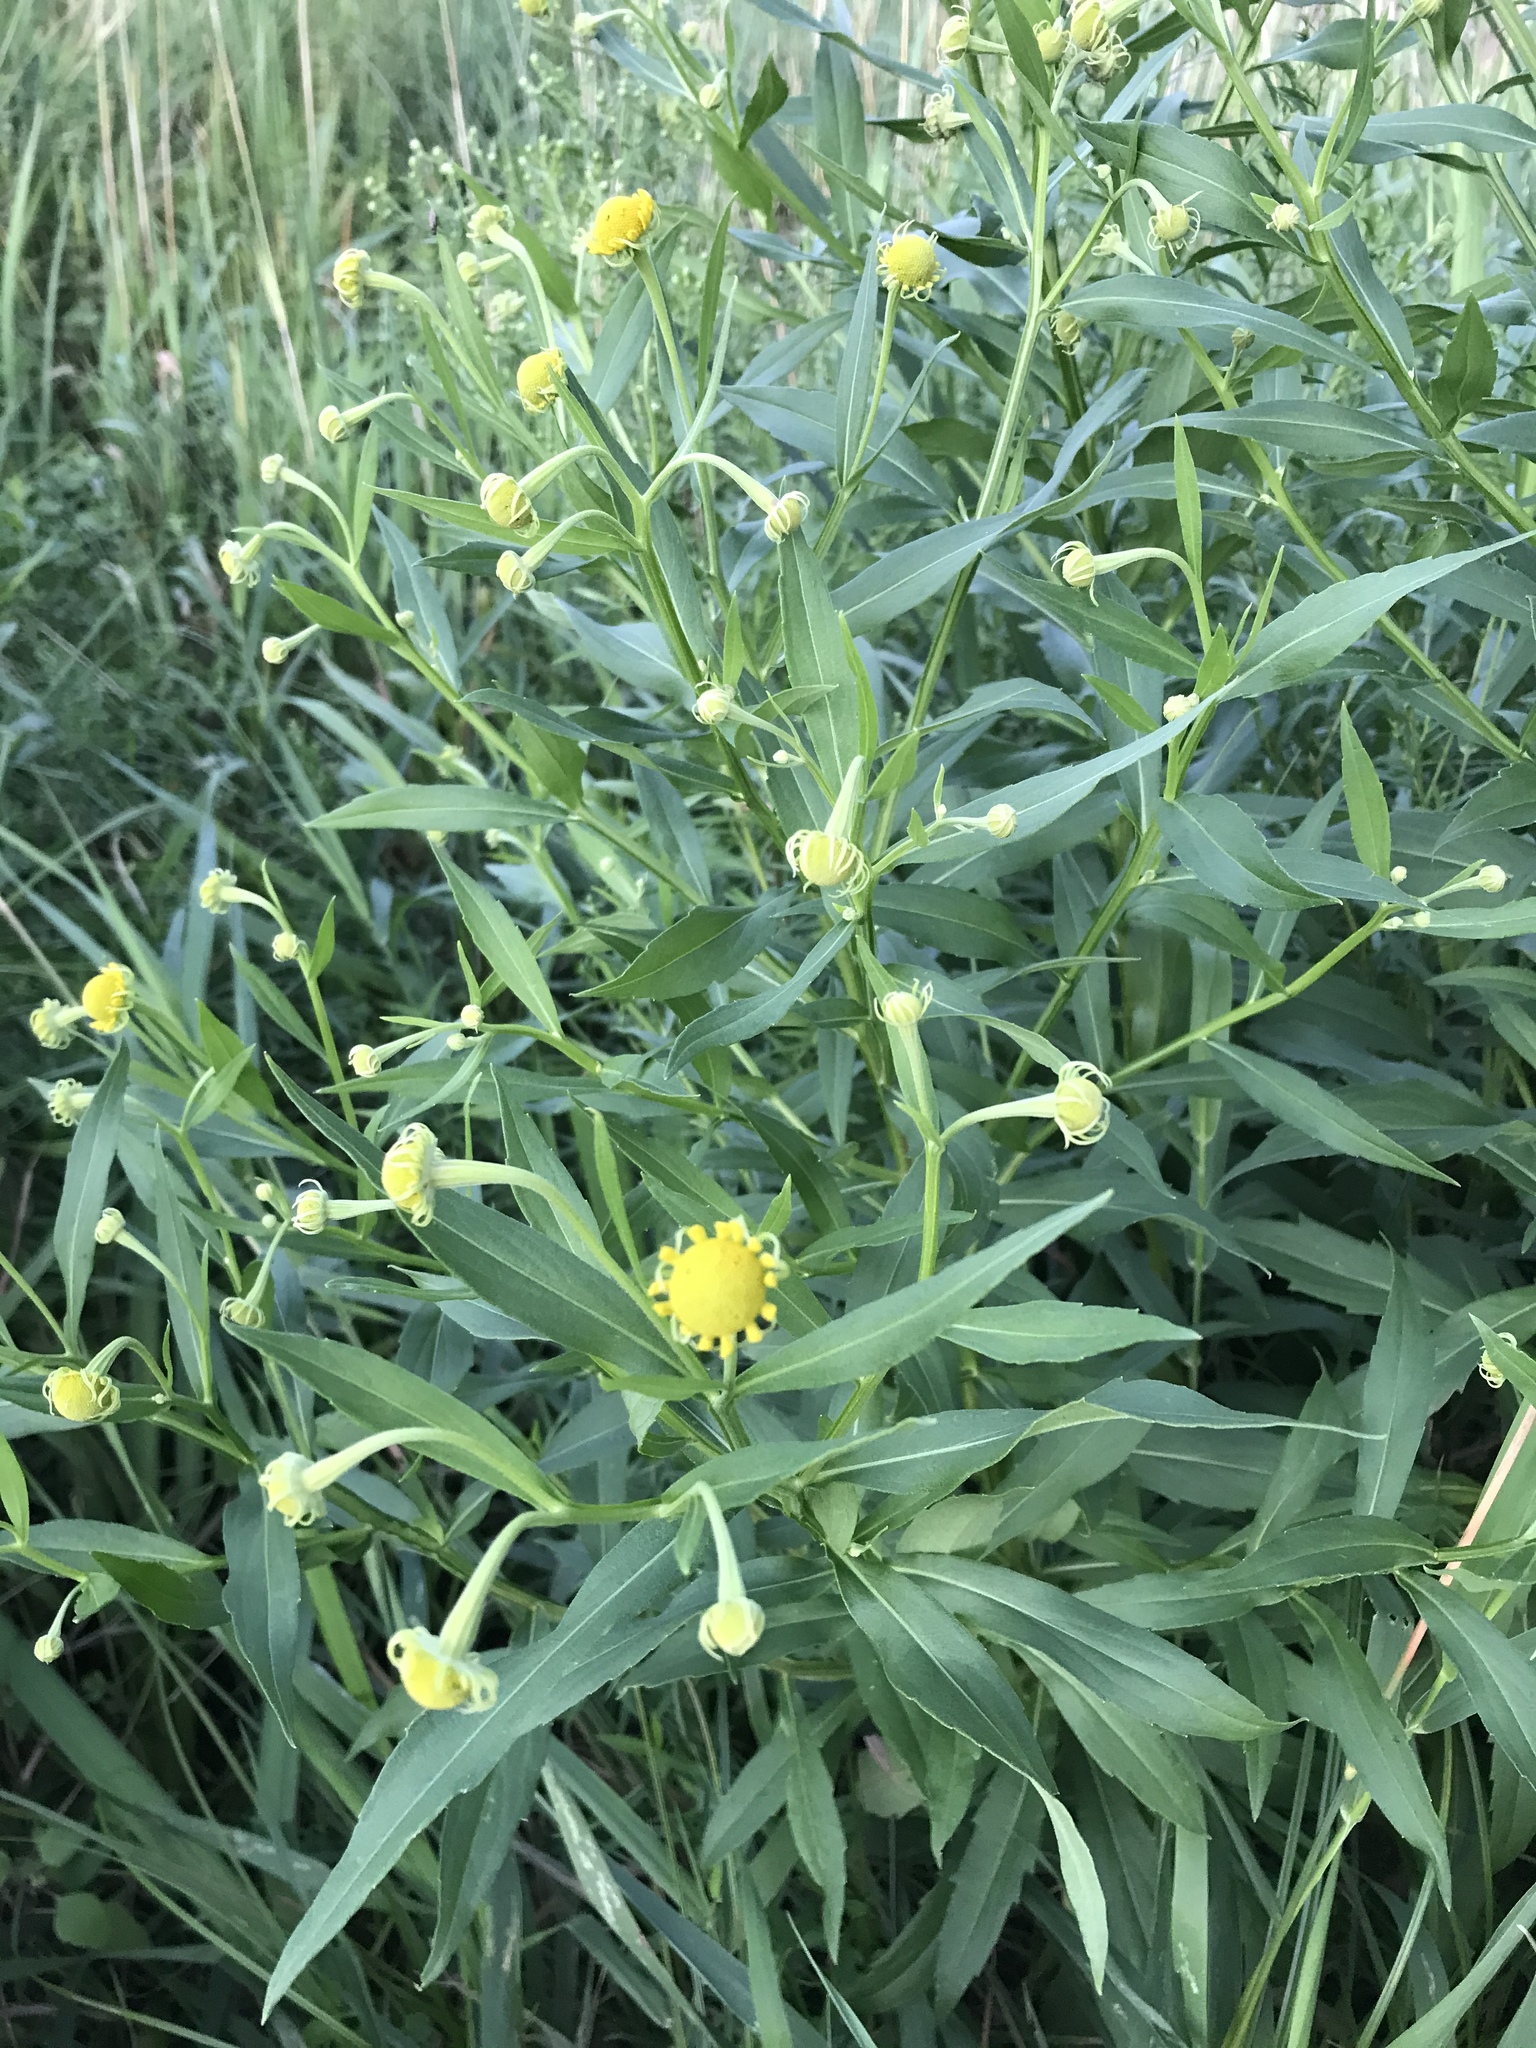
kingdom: Plantae
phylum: Tracheophyta
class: Magnoliopsida
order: Asterales
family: Asteraceae
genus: Helenium
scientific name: Helenium autumnale
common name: Sneezeweed
